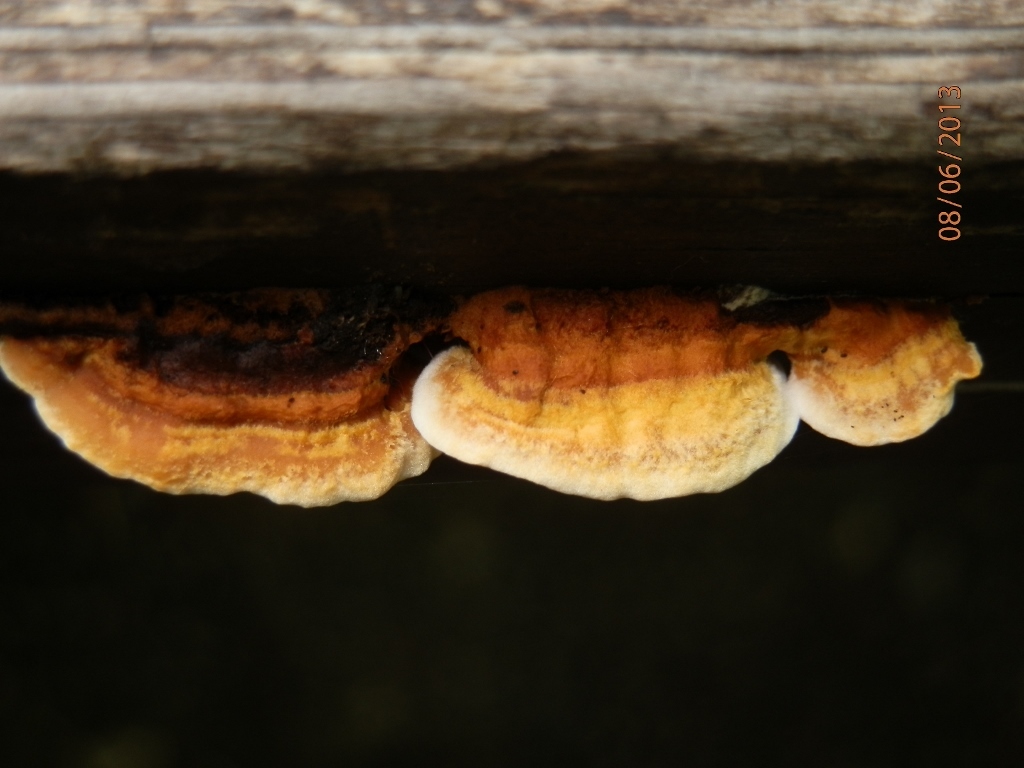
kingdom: Fungi
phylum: Basidiomycota
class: Agaricomycetes
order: Gloeophyllales
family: Gloeophyllaceae
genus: Gloeophyllum
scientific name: Gloeophyllum sepiarium
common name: Conifer mazegill
